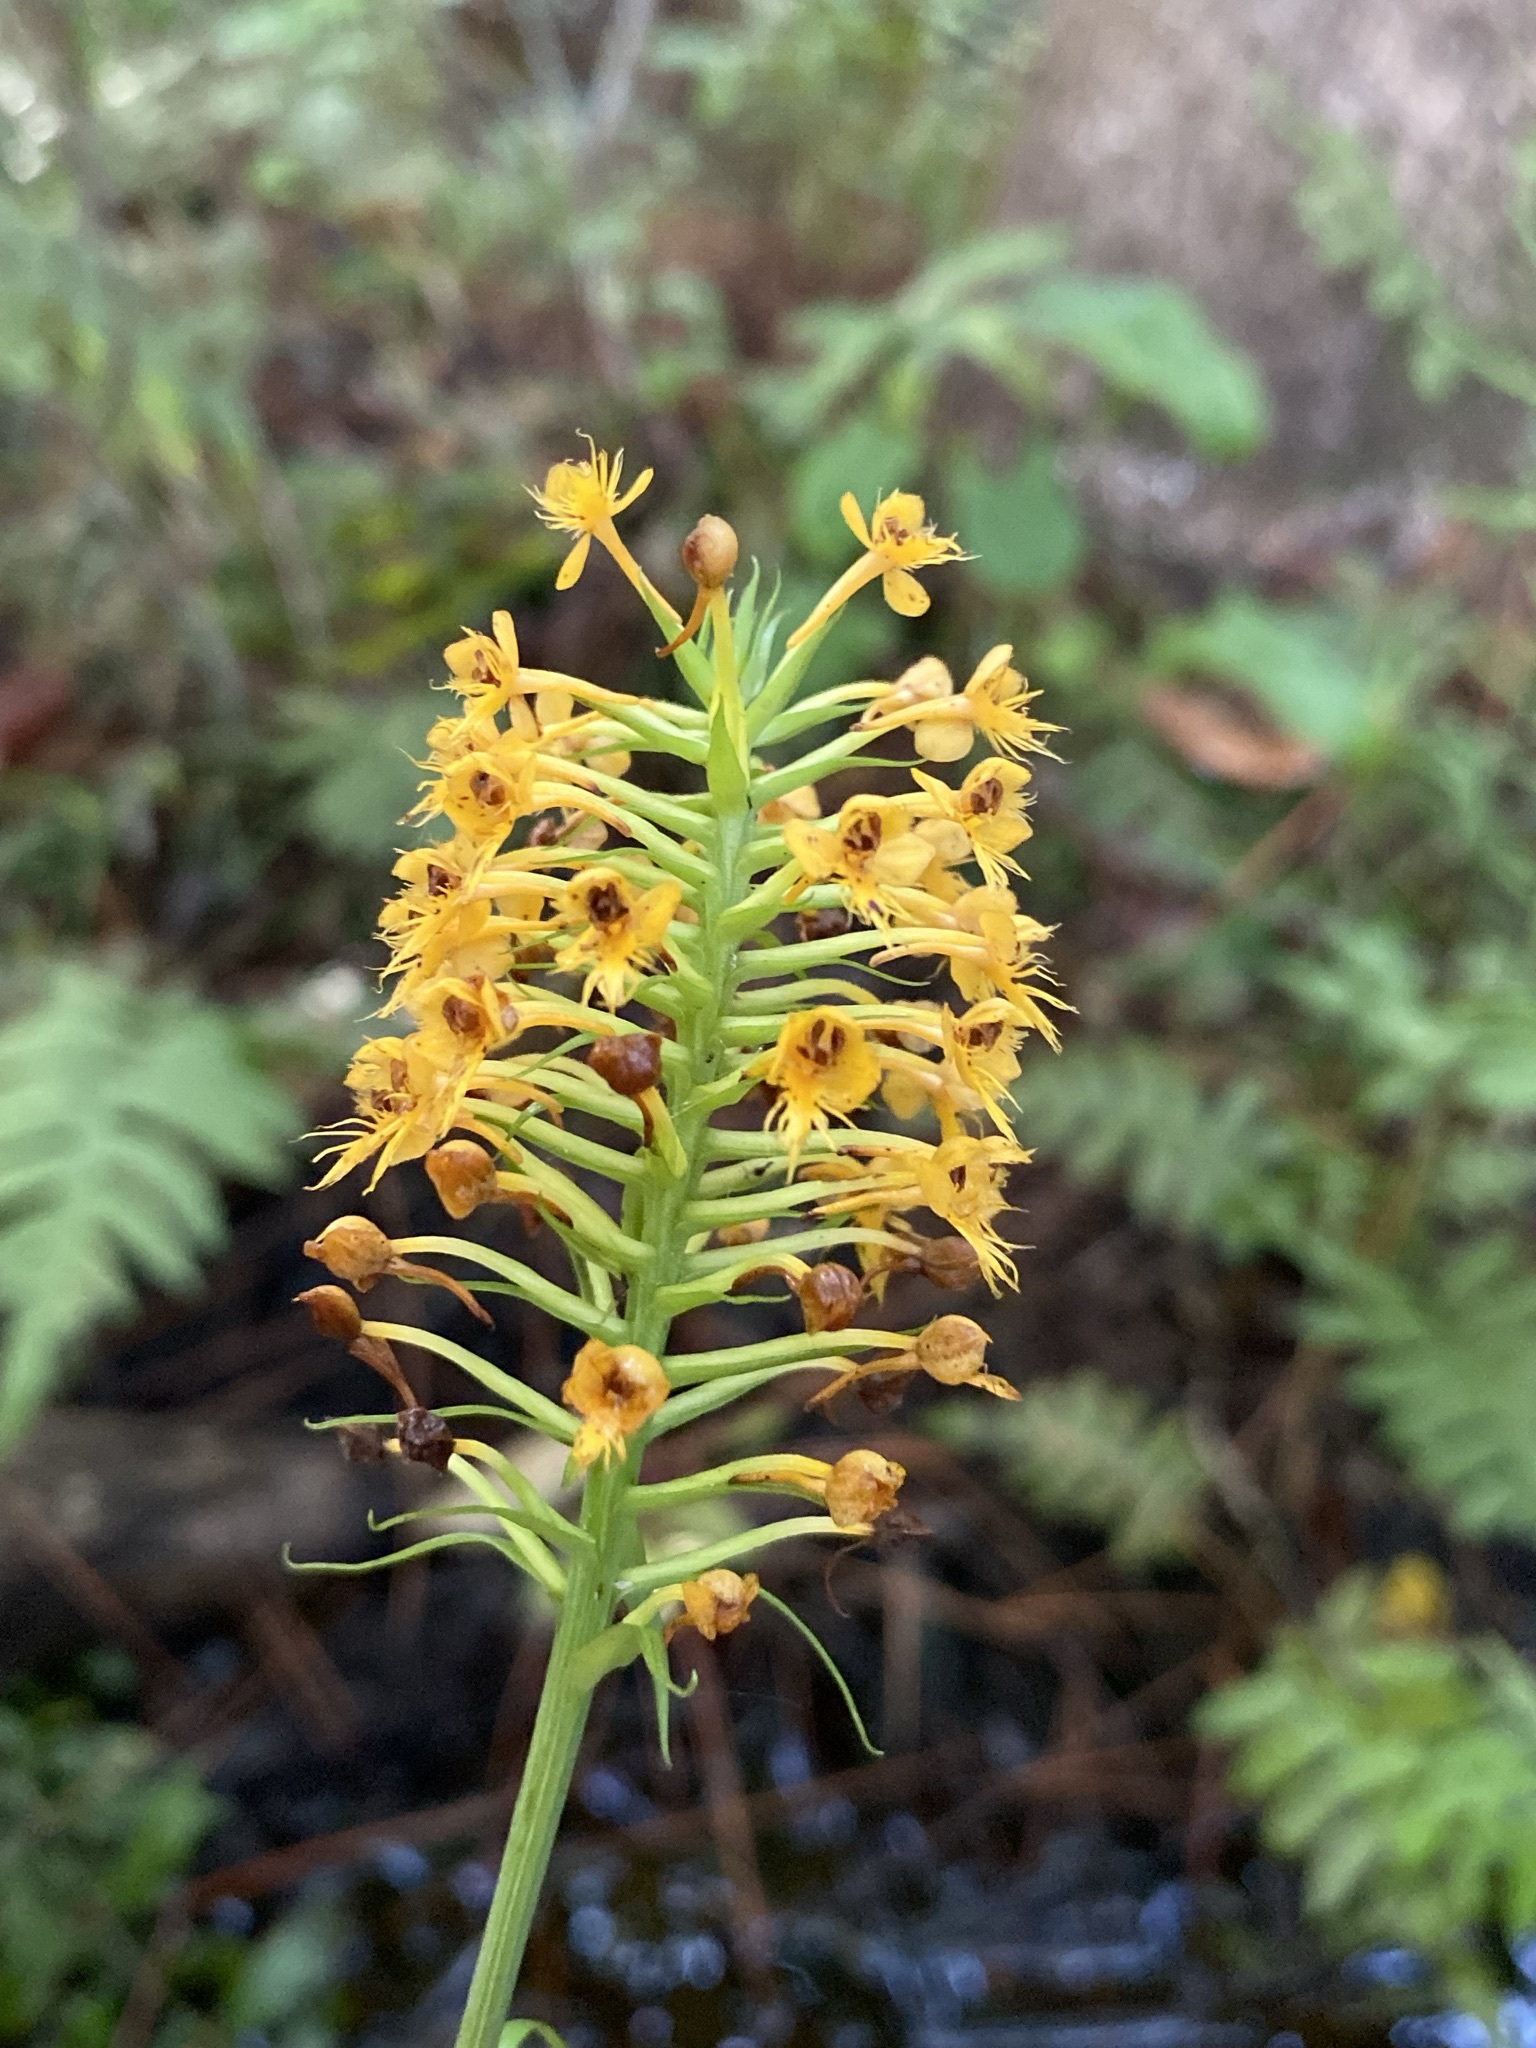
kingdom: Plantae
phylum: Tracheophyta
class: Liliopsida
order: Asparagales
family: Orchidaceae
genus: Platanthera
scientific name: Platanthera cristata
